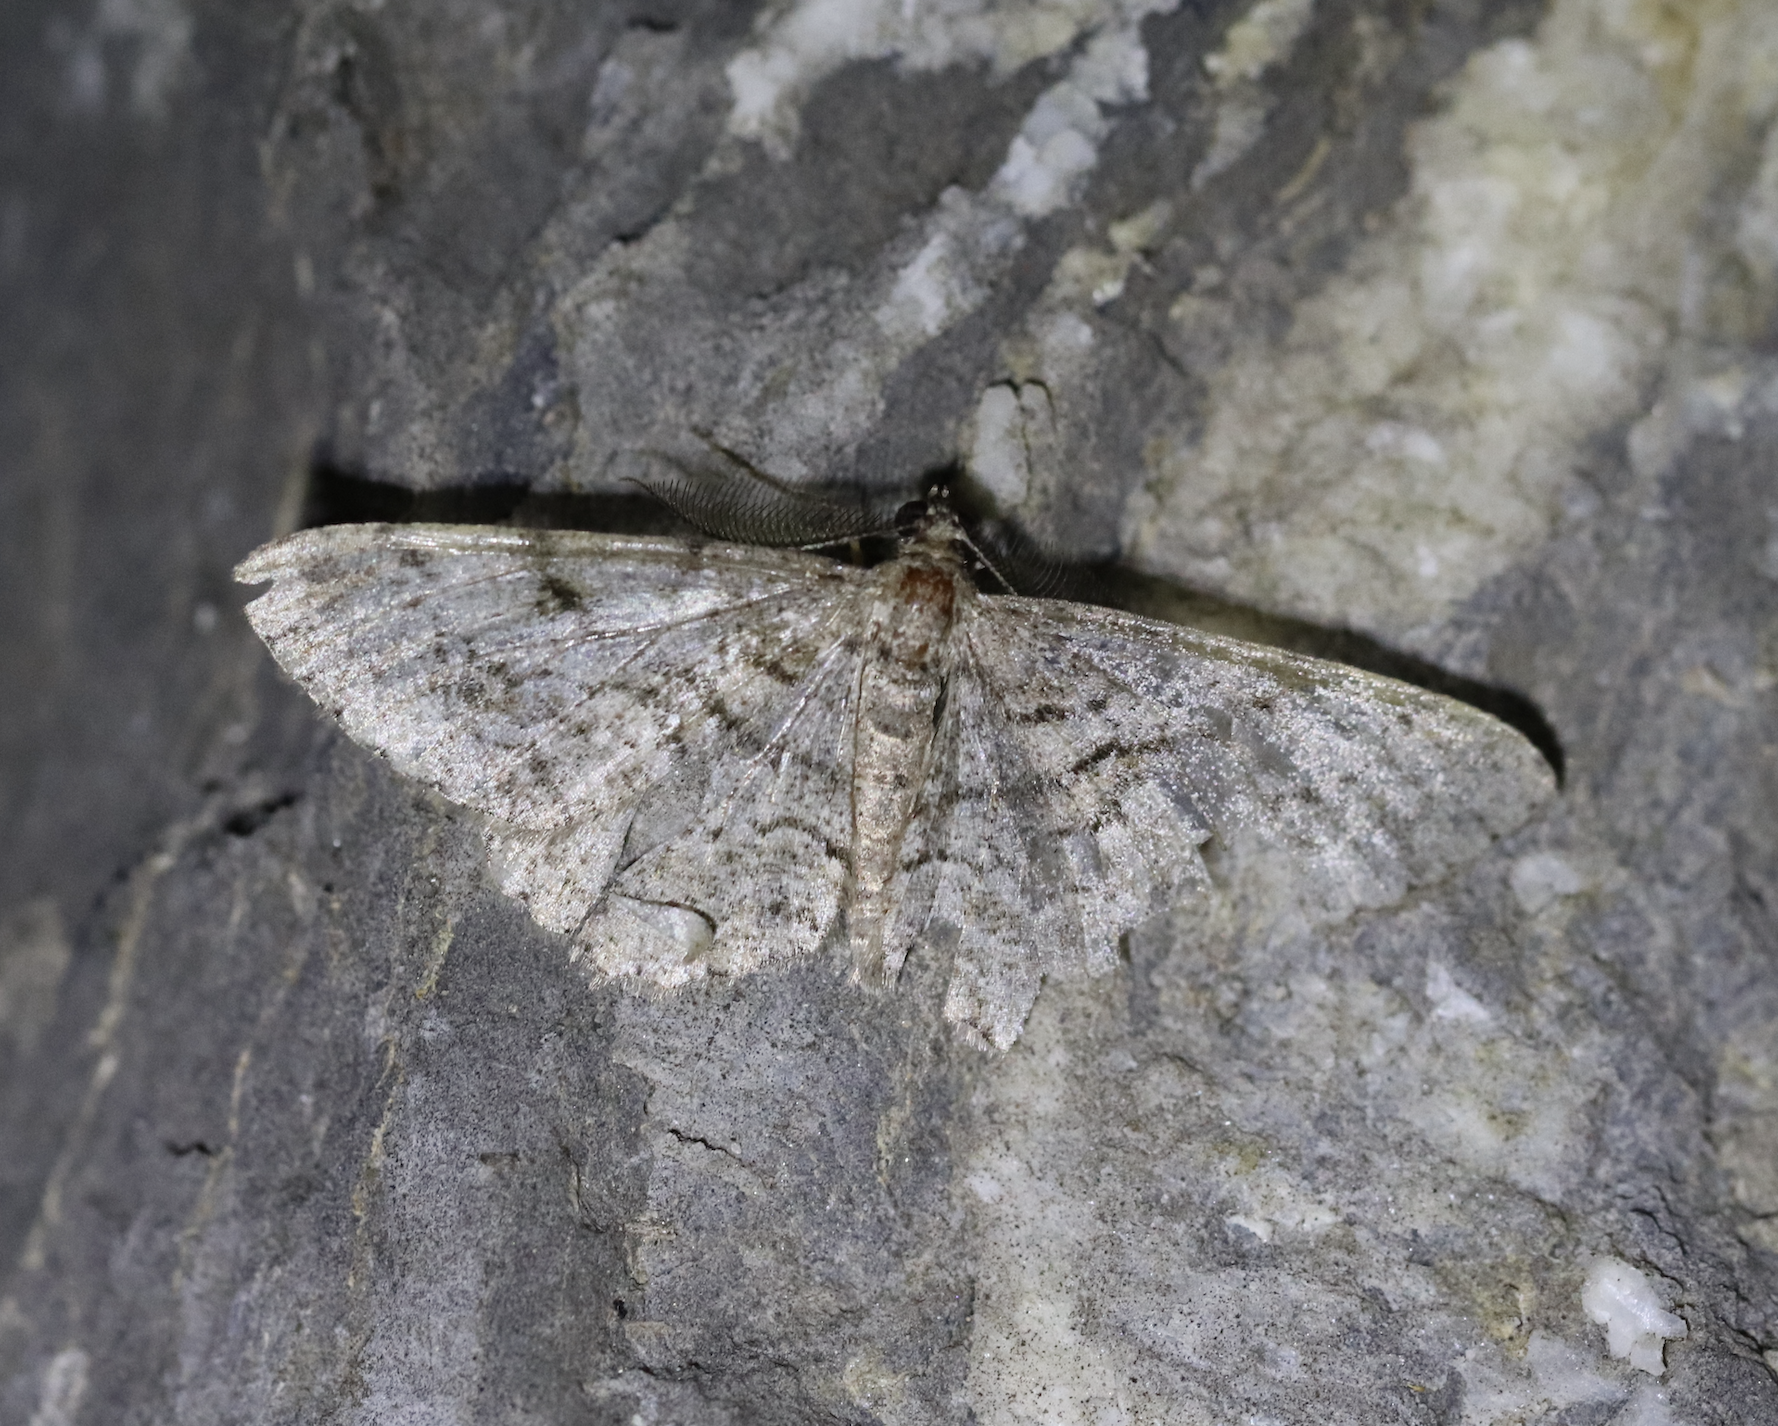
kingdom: Animalia
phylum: Arthropoda
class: Insecta
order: Lepidoptera
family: Geometridae
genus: Peribatodes
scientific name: Peribatodes secundaria
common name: Feathered beauty
